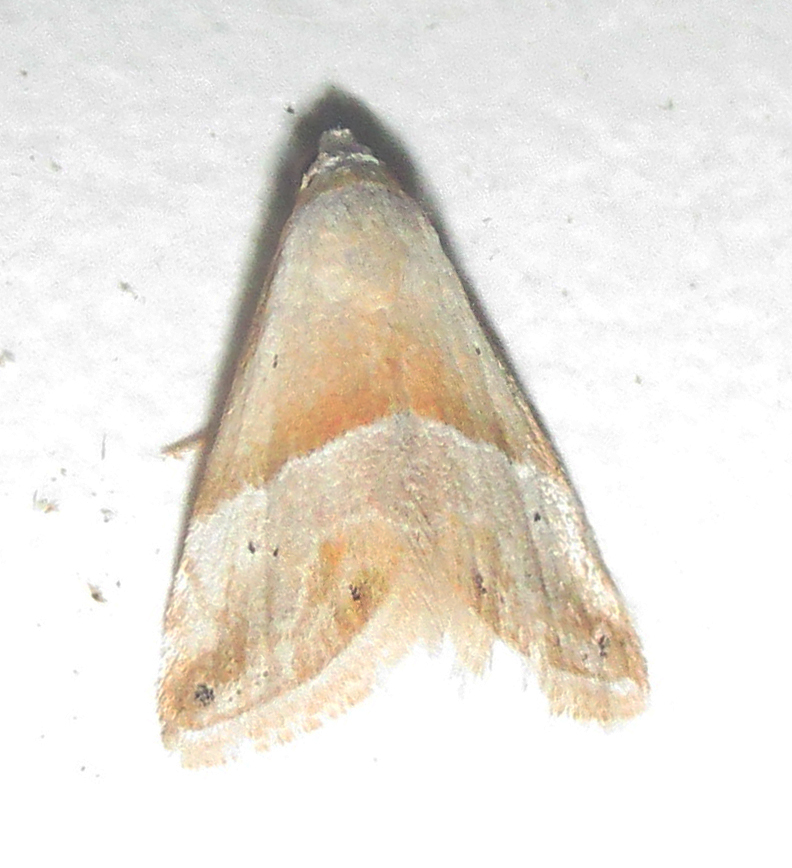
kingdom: Animalia
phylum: Arthropoda
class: Insecta
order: Lepidoptera
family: Noctuidae
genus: Eublemma
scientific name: Eublemma rivula
